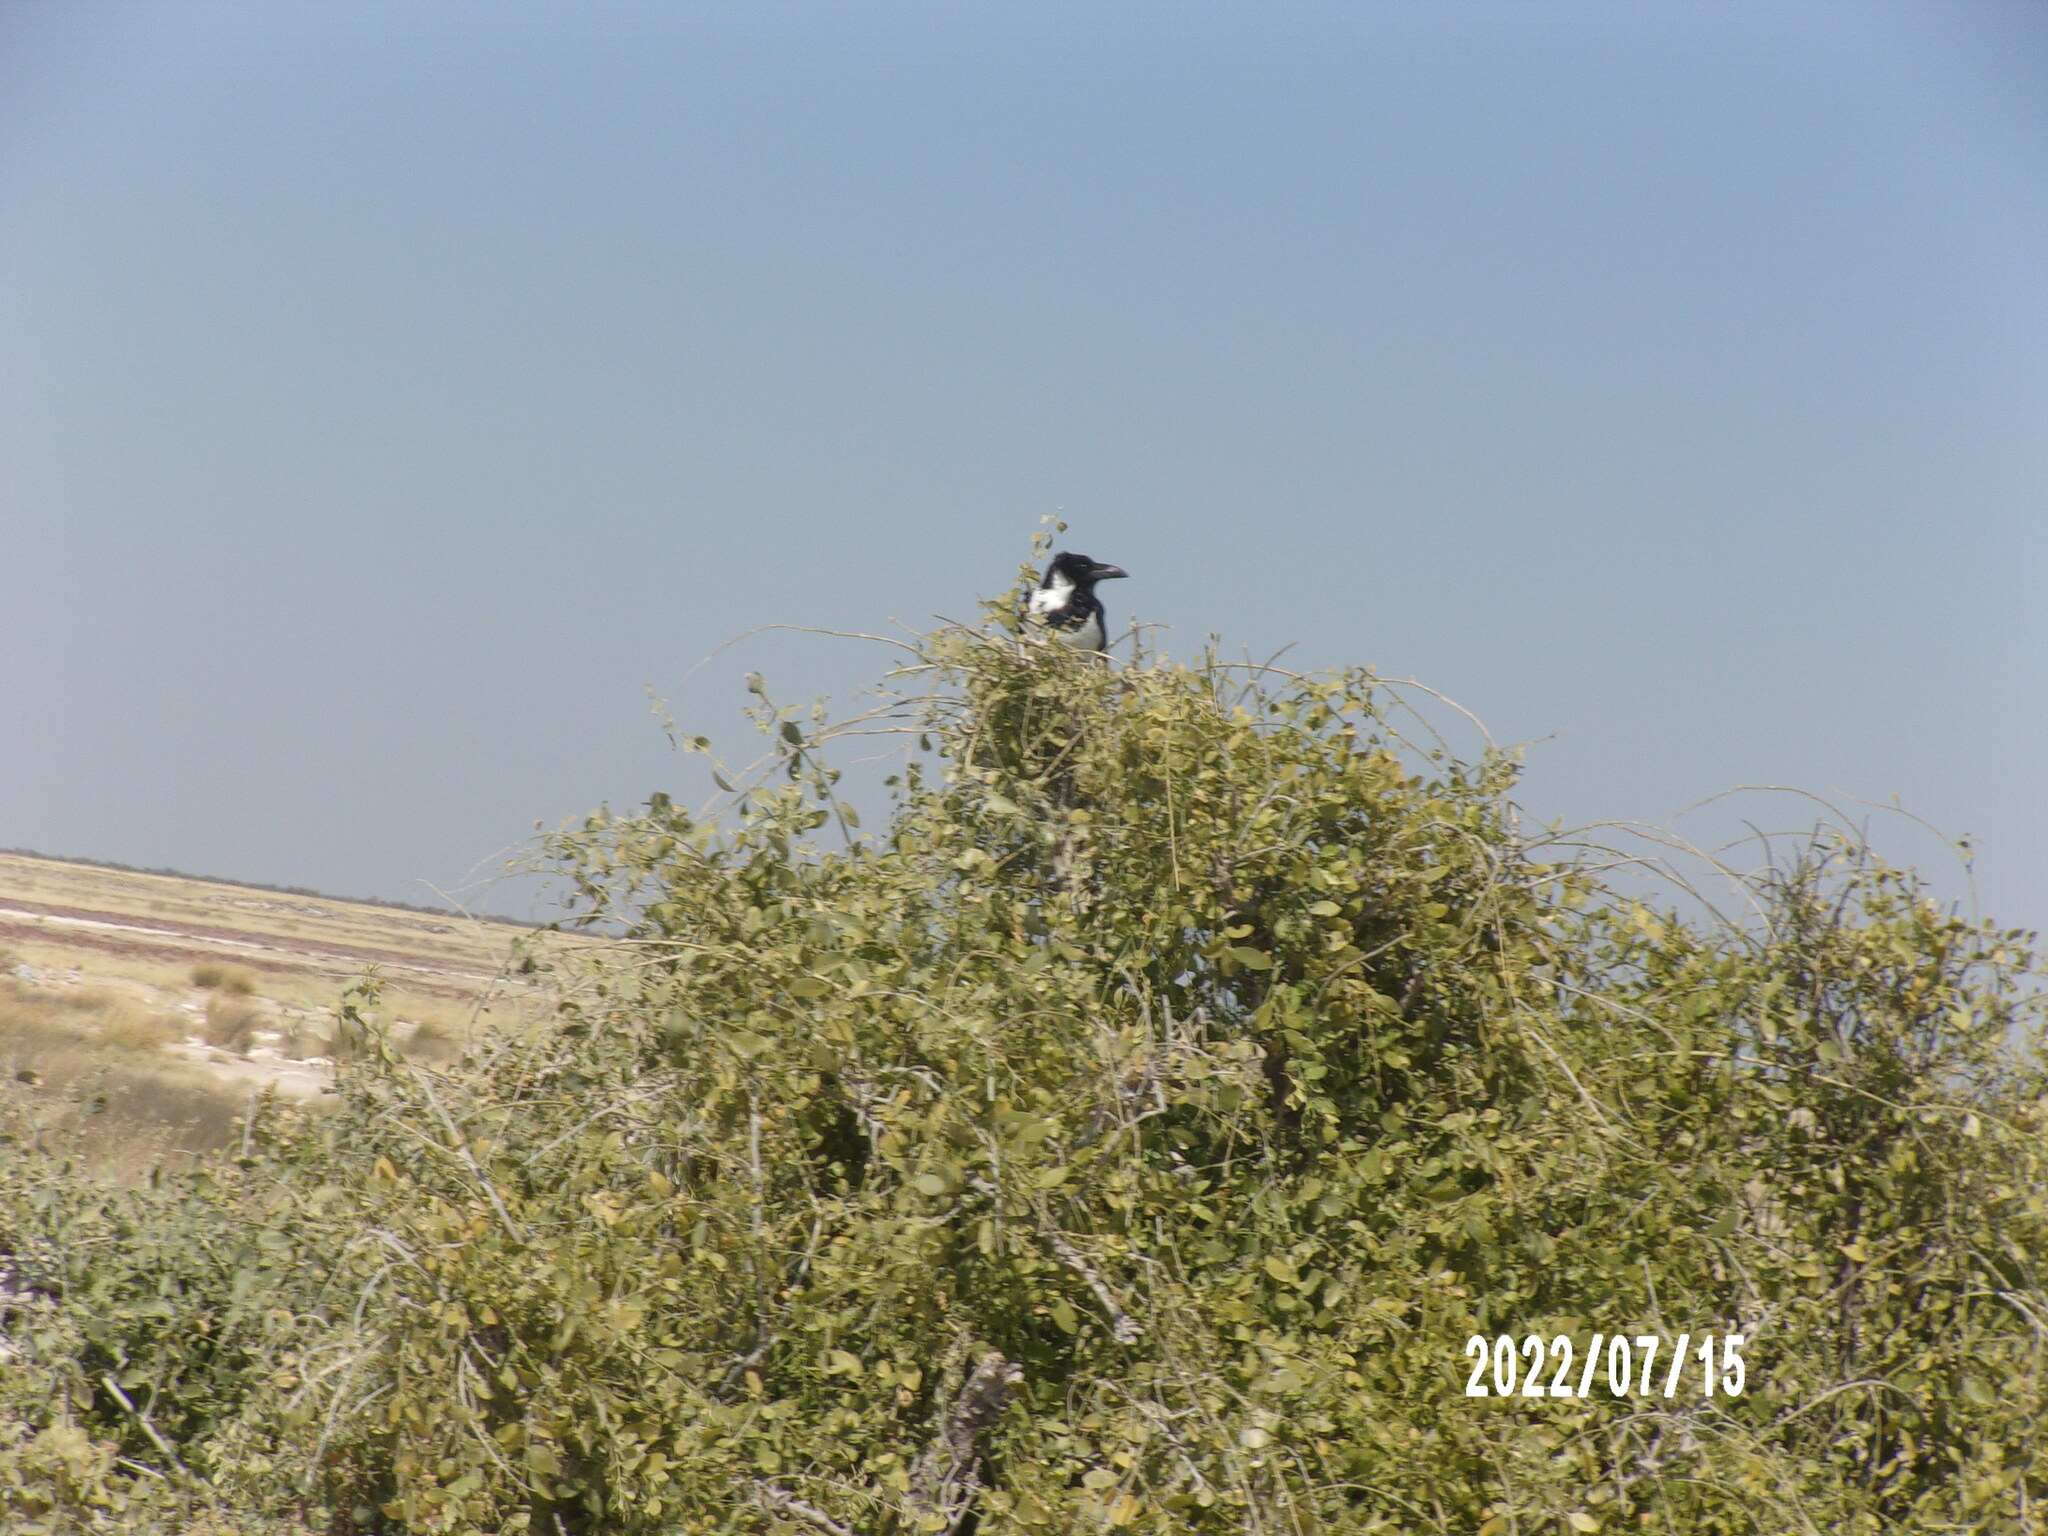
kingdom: Animalia
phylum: Chordata
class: Aves
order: Passeriformes
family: Corvidae
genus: Corvus
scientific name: Corvus albus
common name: Pied crow
